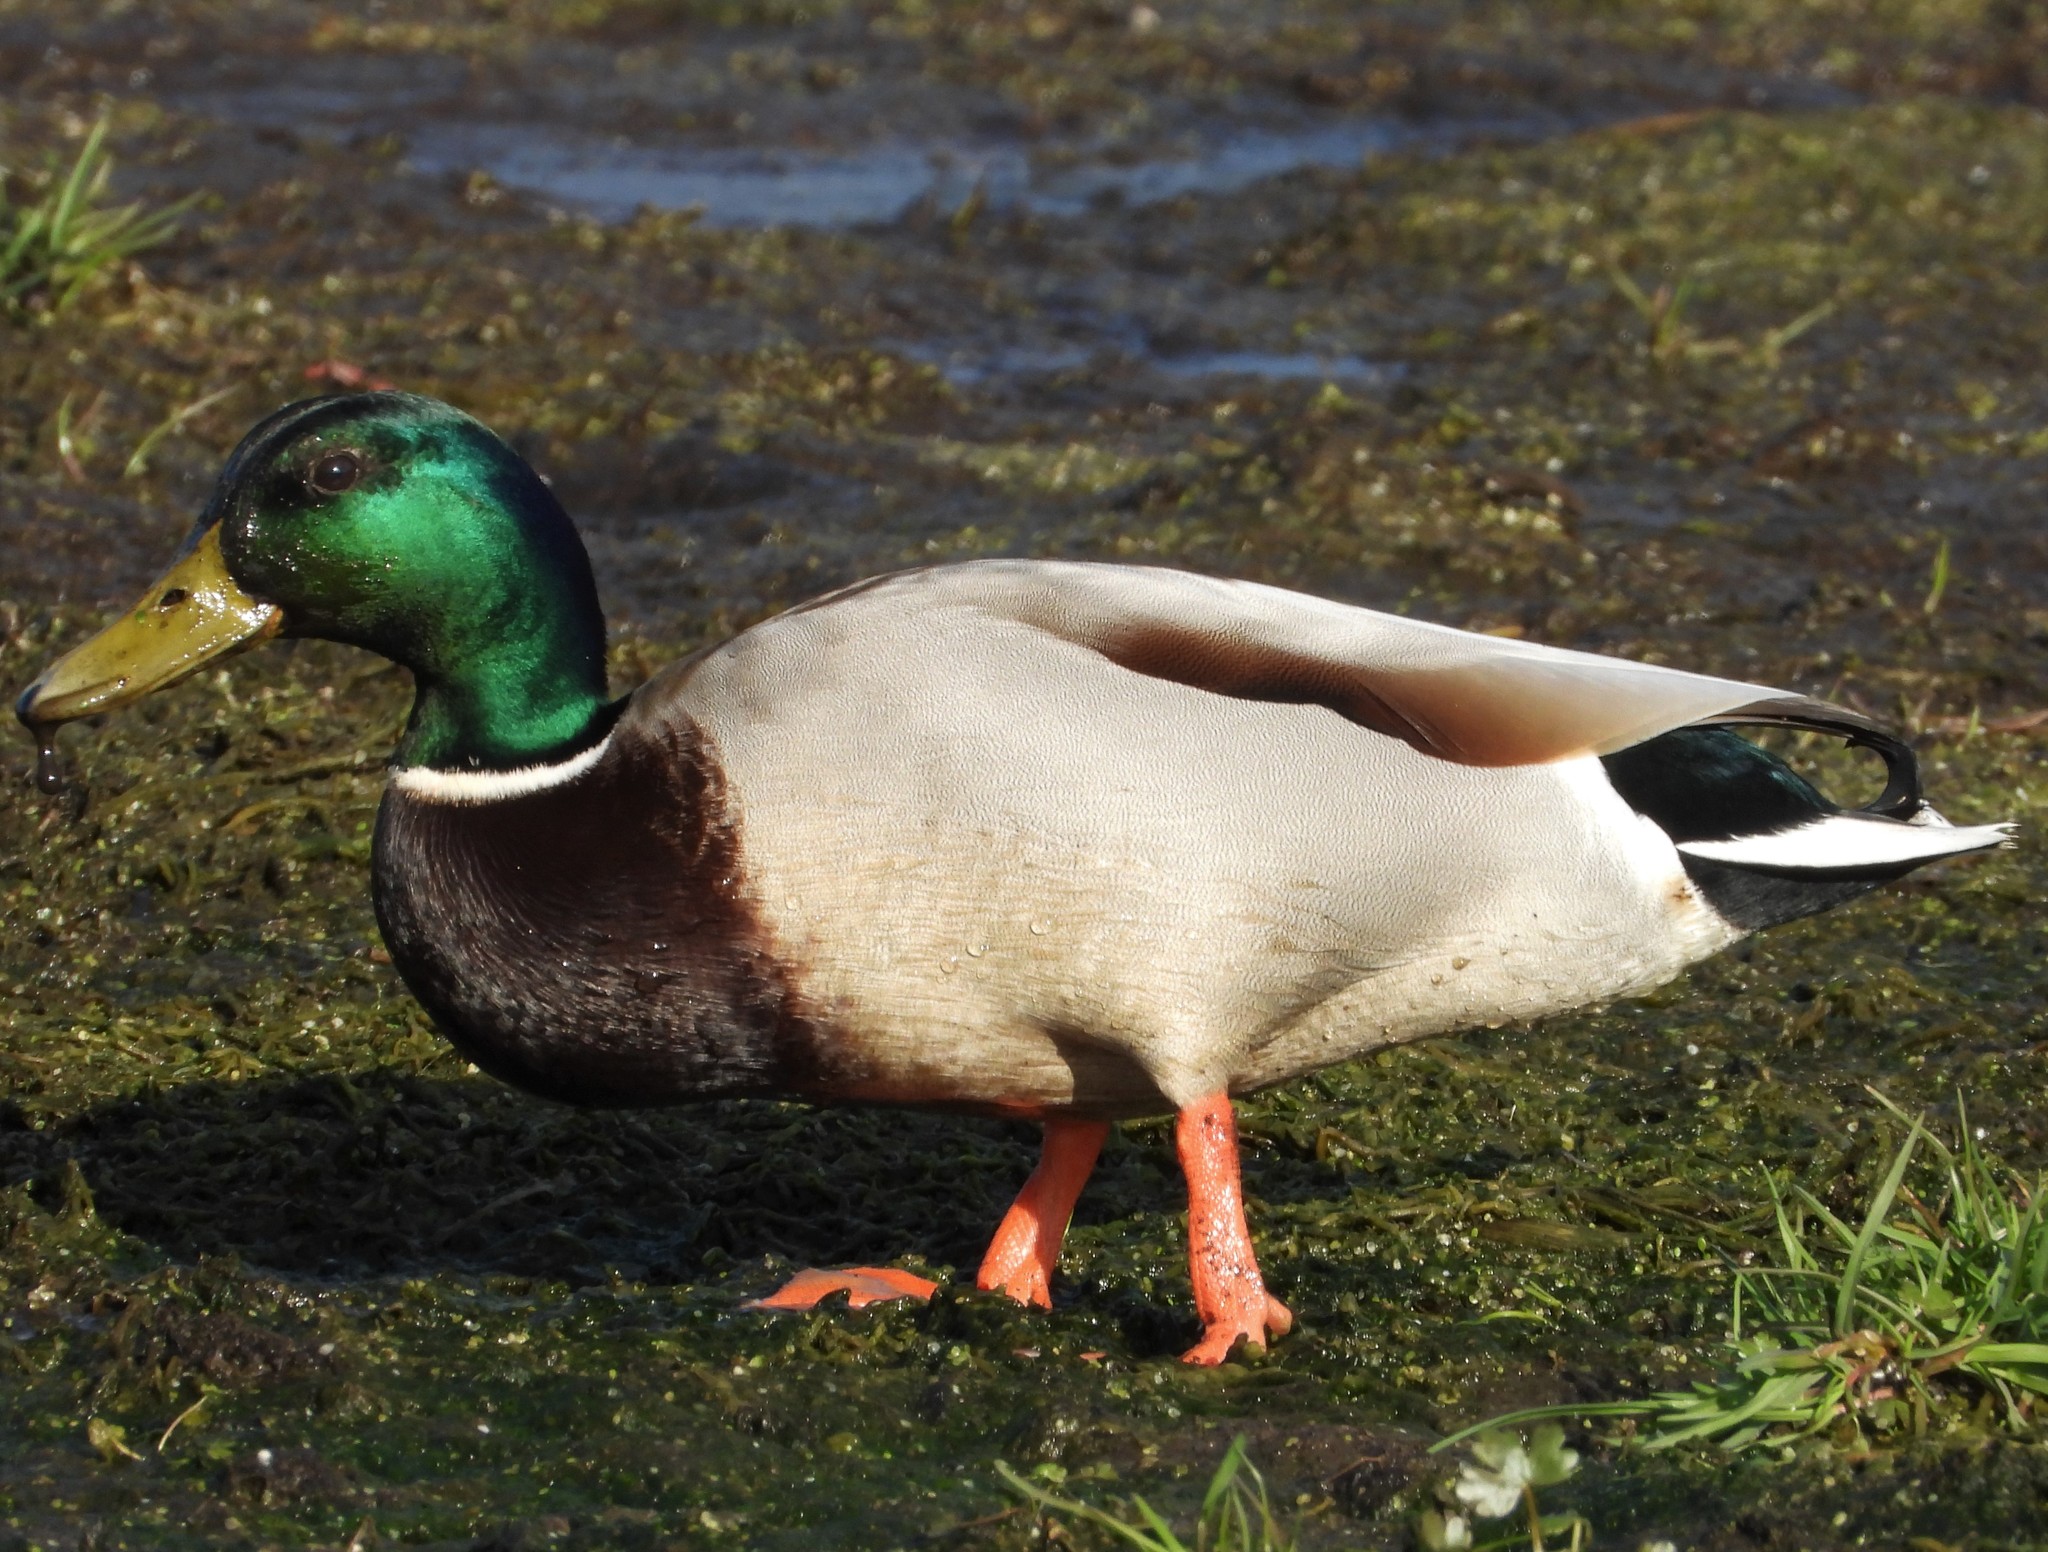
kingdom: Animalia
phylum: Chordata
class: Aves
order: Anseriformes
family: Anatidae
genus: Anas
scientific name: Anas platyrhynchos
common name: Mallard
